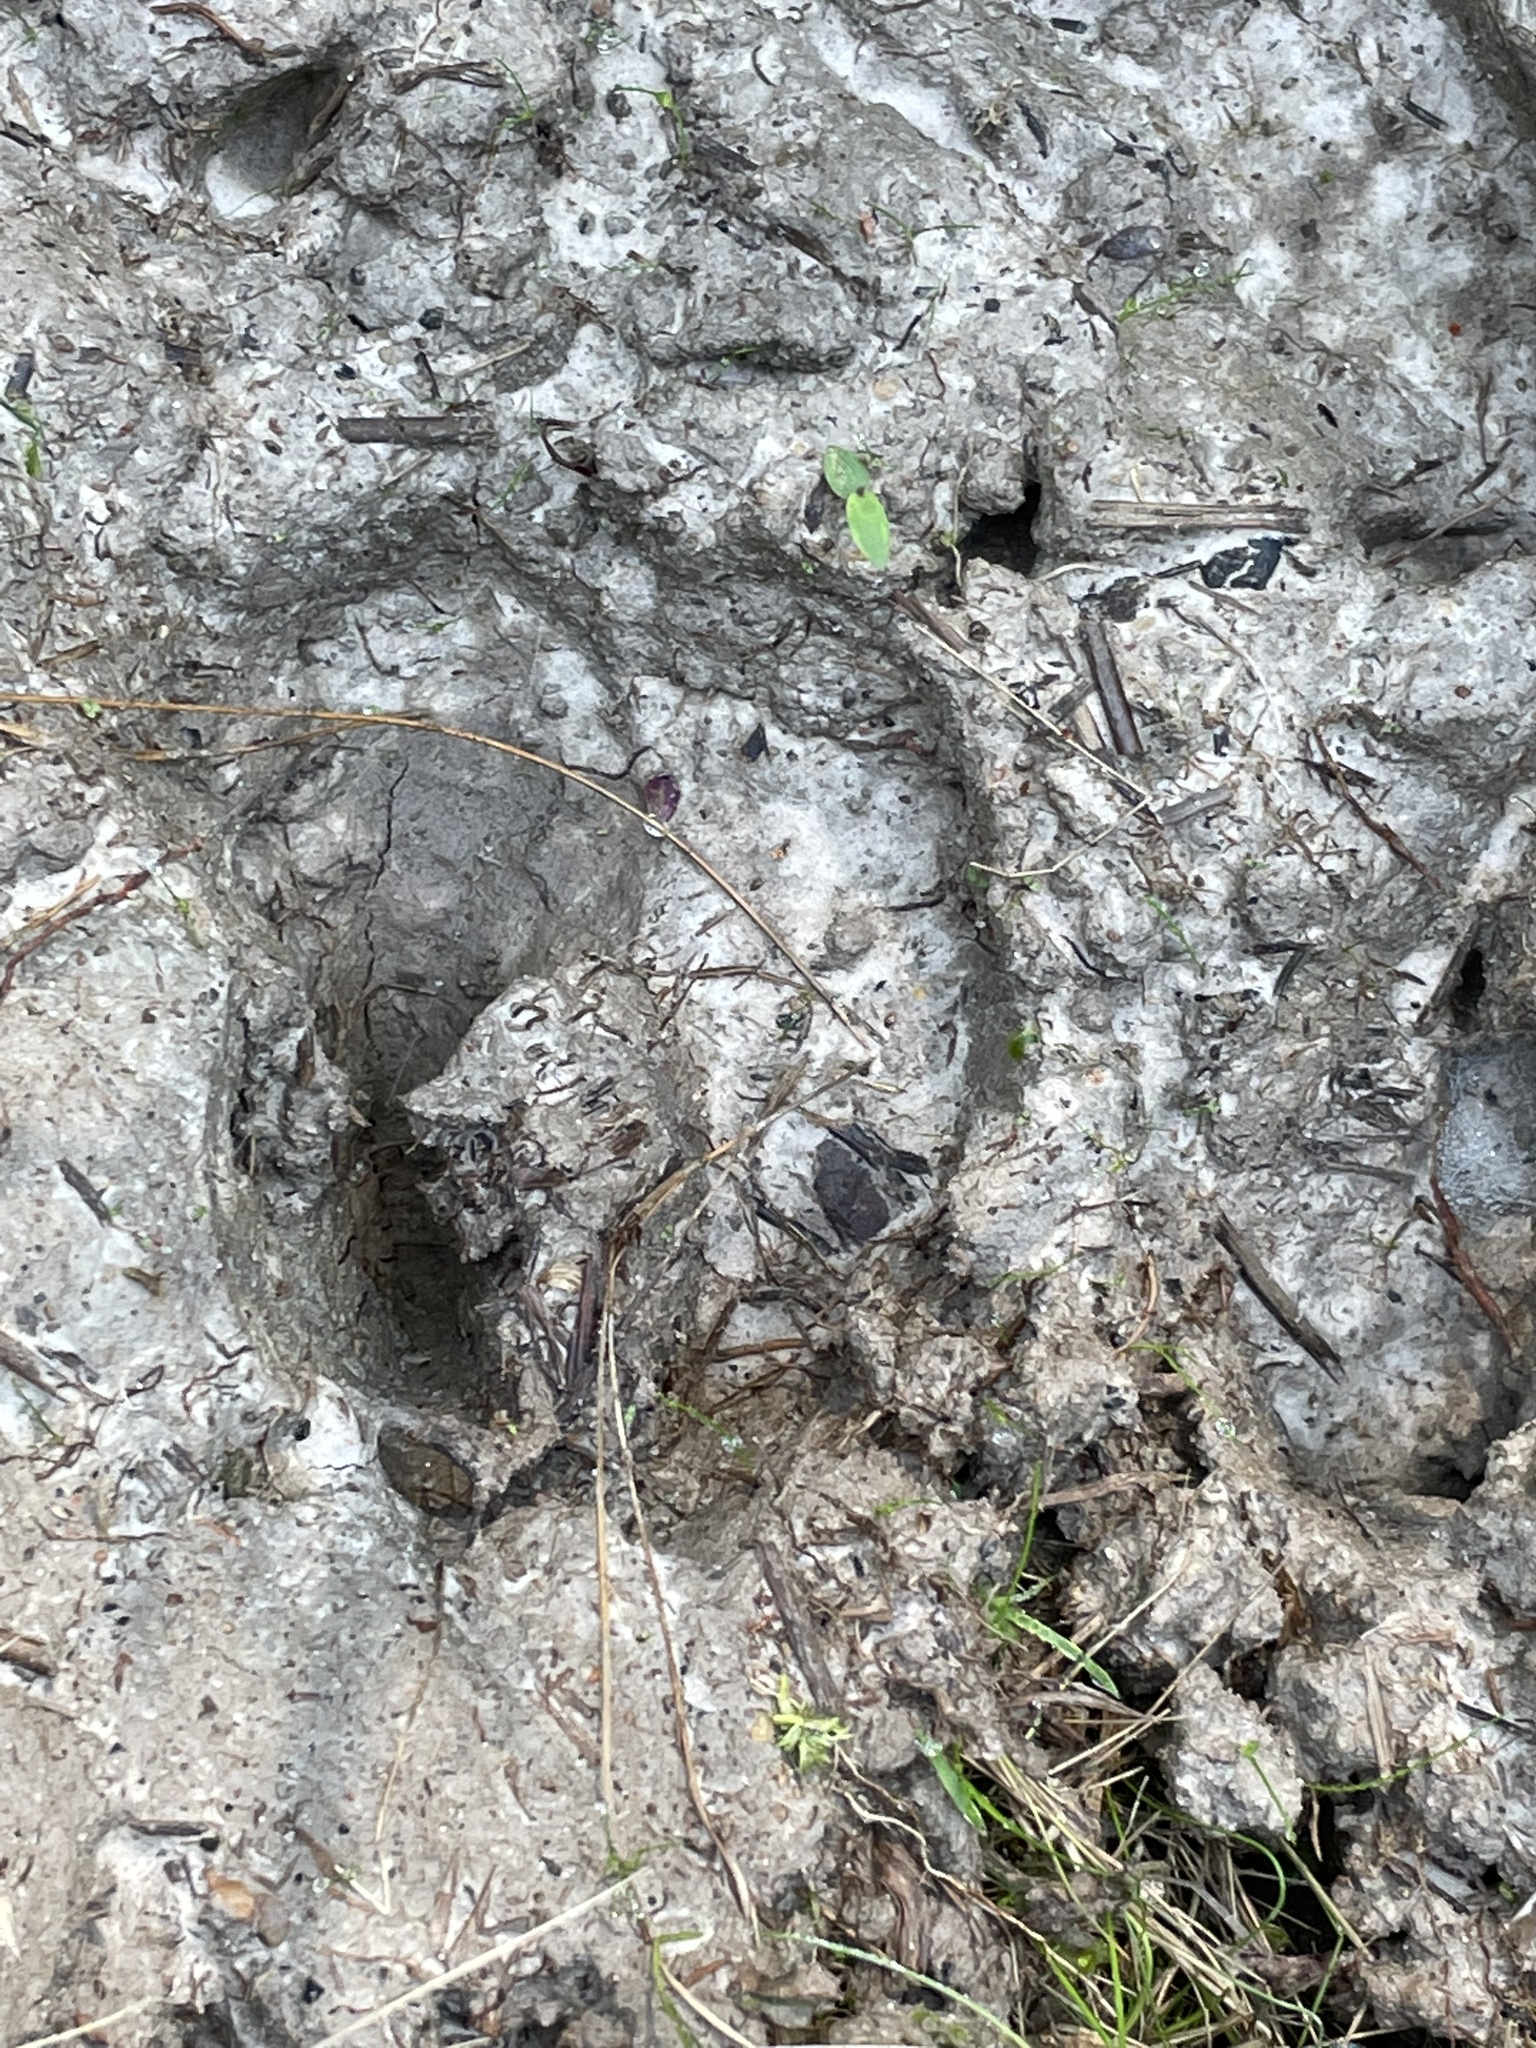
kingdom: Animalia
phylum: Chordata
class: Mammalia
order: Artiodactyla
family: Suidae
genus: Sus
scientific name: Sus scrofa
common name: Wild boar
